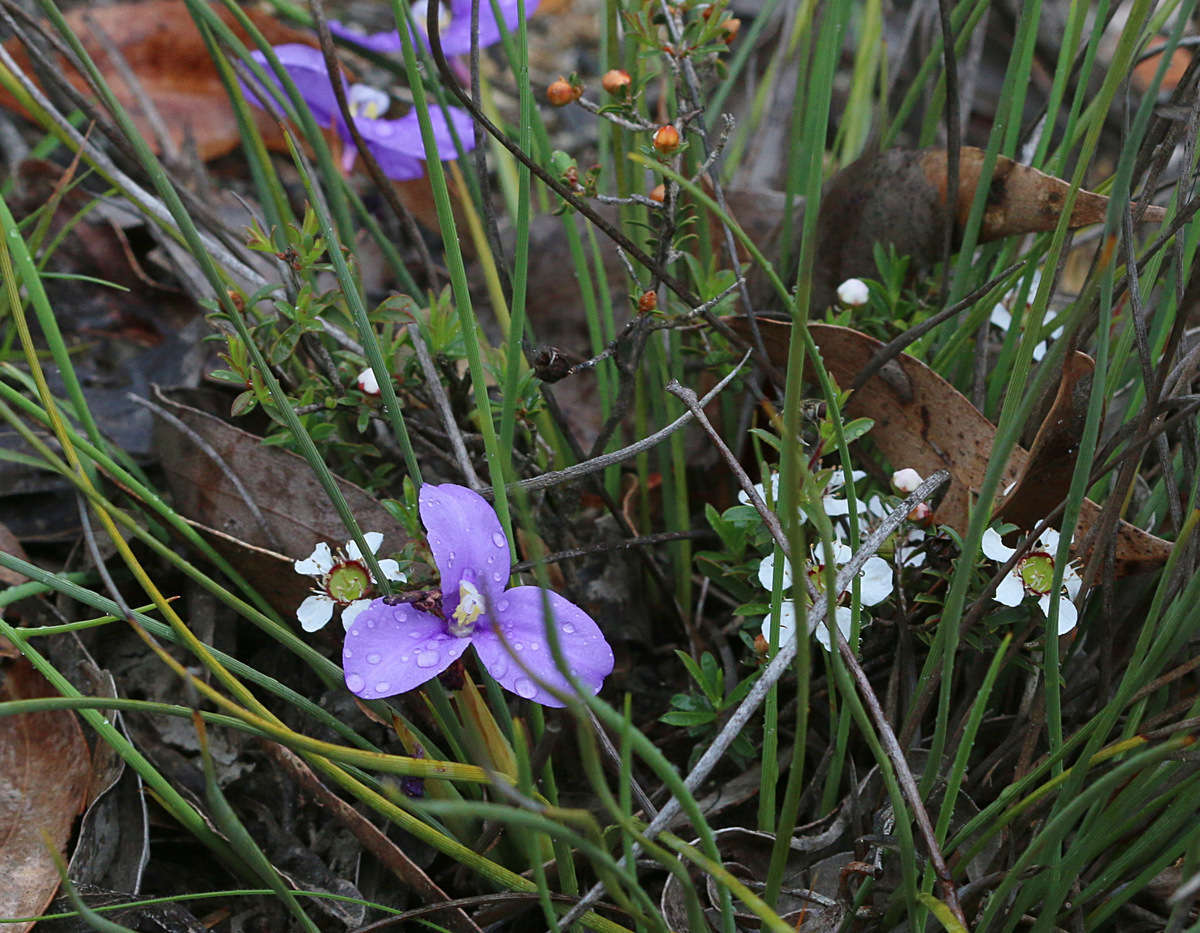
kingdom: Plantae
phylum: Tracheophyta
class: Liliopsida
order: Asparagales
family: Iridaceae
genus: Patersonia
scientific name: Patersonia fragilis
